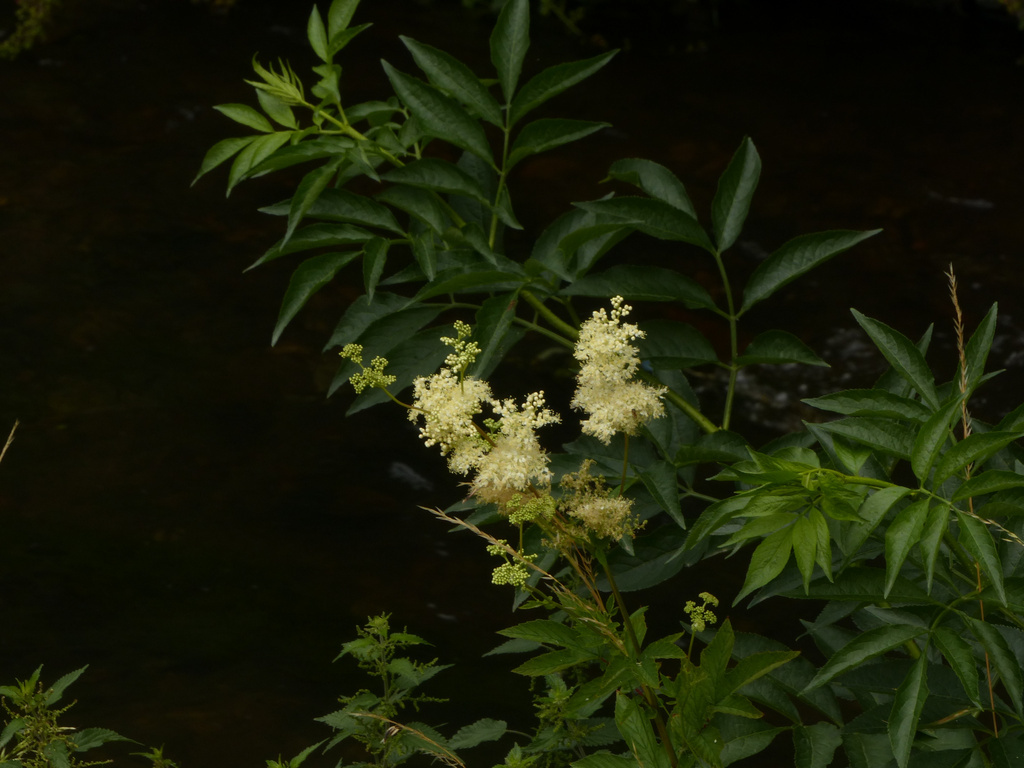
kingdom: Plantae
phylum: Tracheophyta
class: Magnoliopsida
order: Rosales
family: Rosaceae
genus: Filipendula
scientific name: Filipendula ulmaria
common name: Meadowsweet
